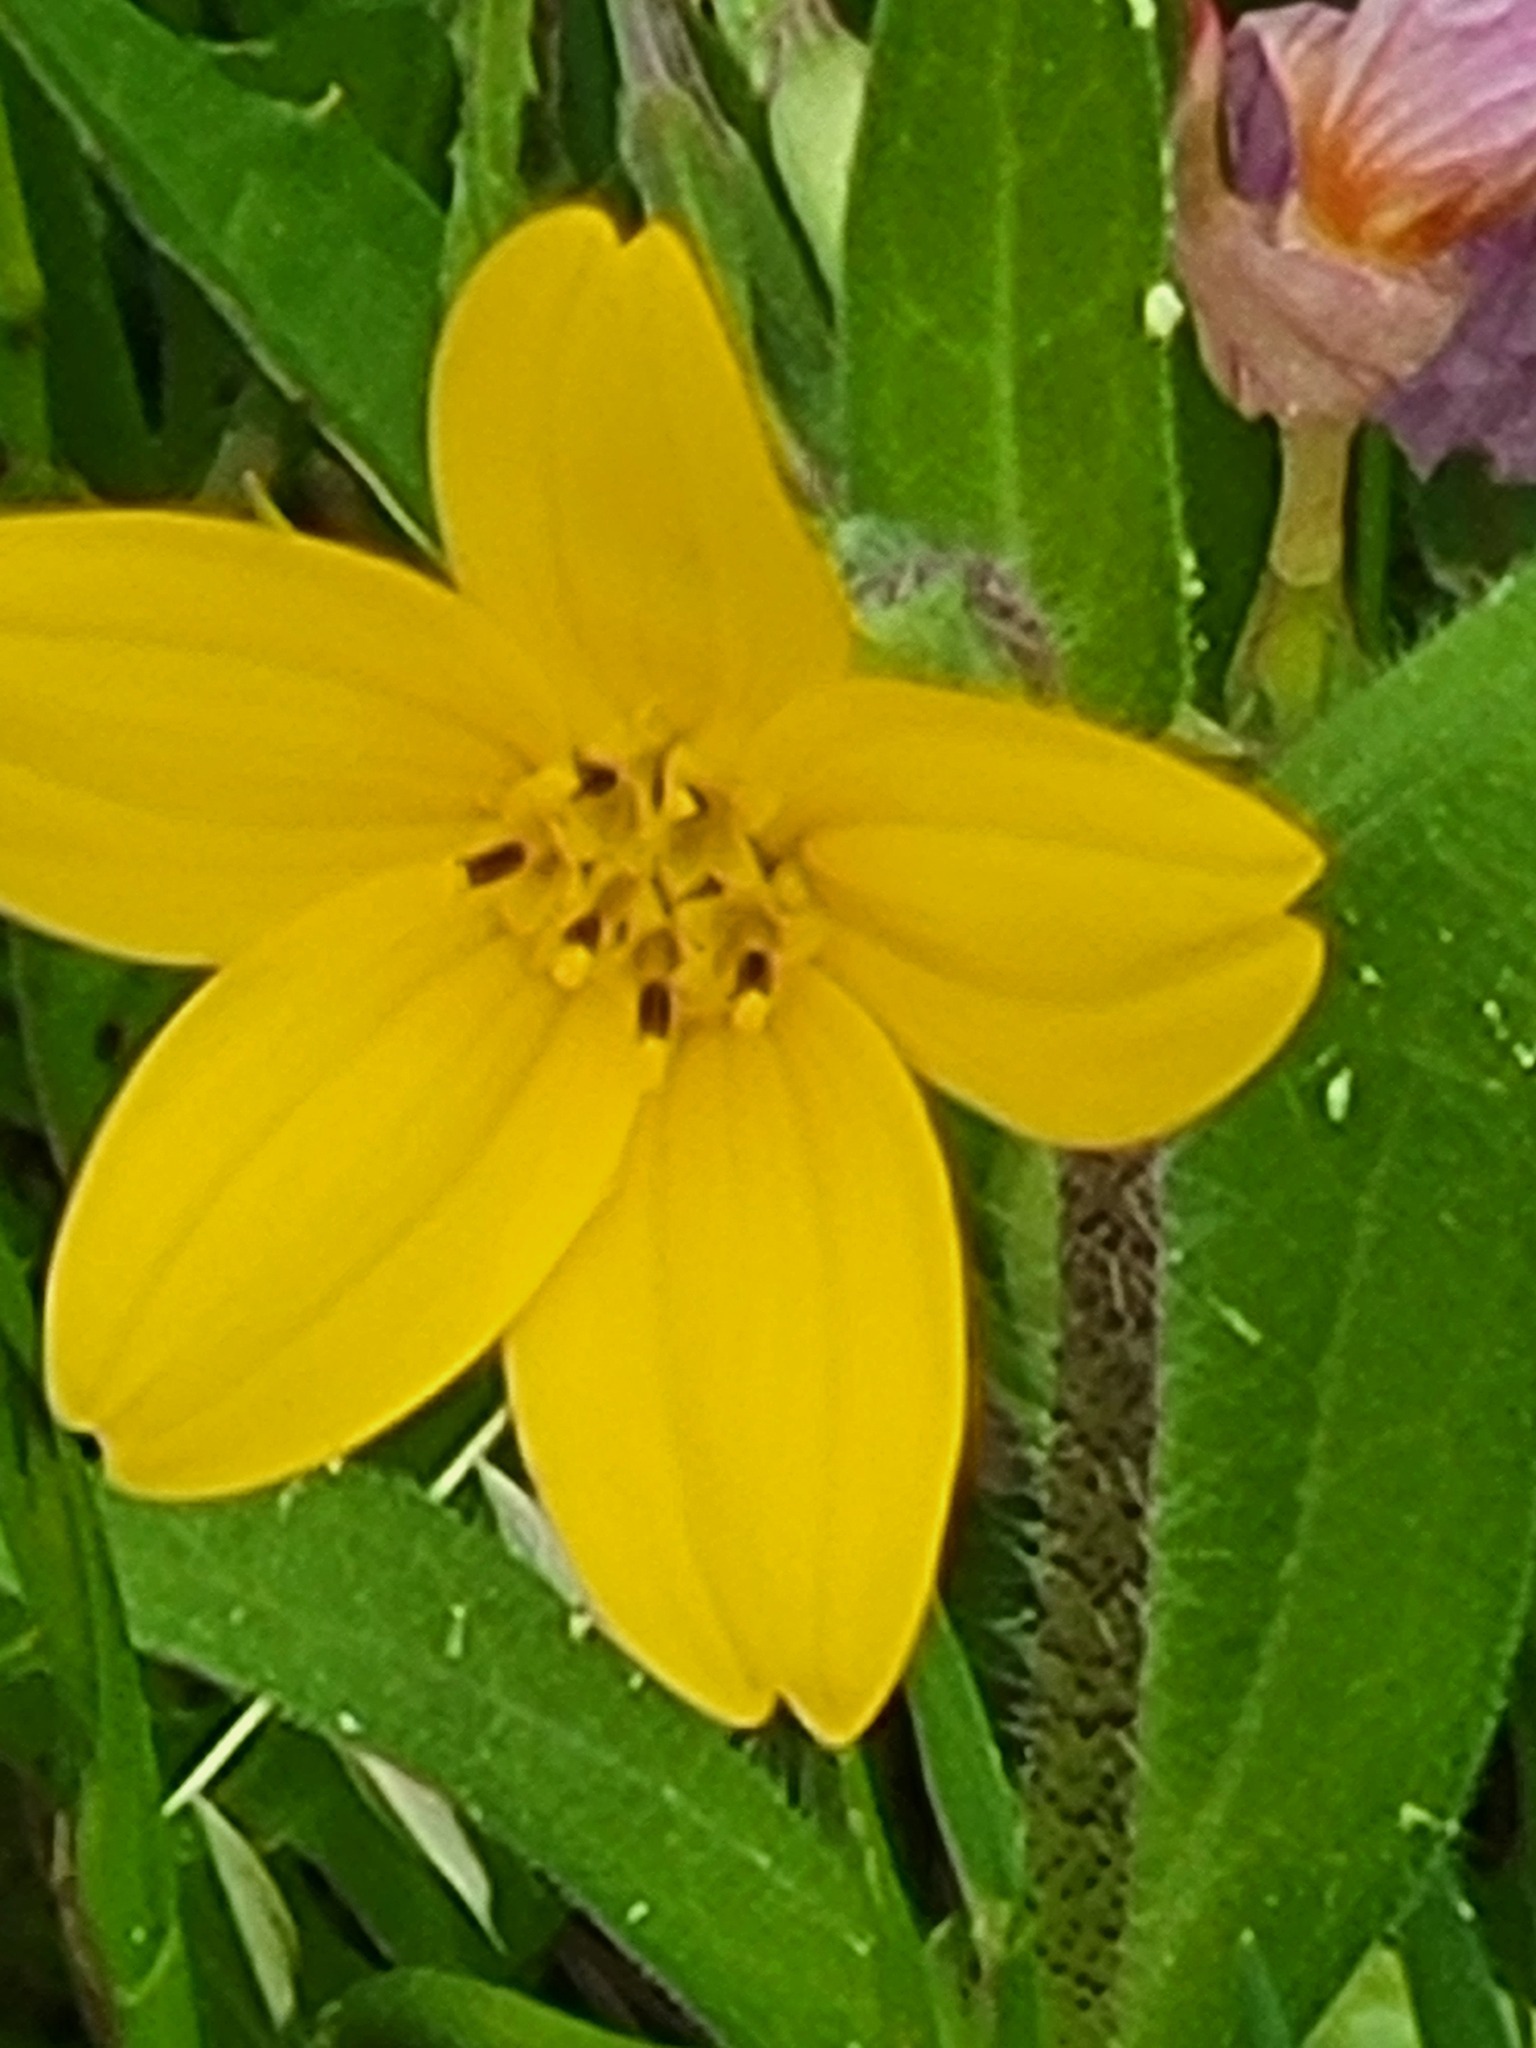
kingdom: Plantae
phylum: Tracheophyta
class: Magnoliopsida
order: Asterales
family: Asteraceae
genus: Lindheimera
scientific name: Lindheimera texana
